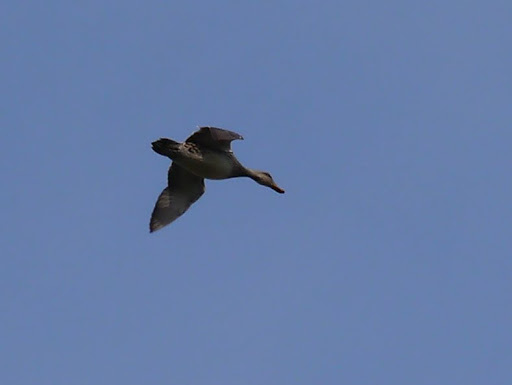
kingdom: Animalia
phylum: Chordata
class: Aves
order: Anseriformes
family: Anatidae
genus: Mareca
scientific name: Mareca strepera
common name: Gadwall
